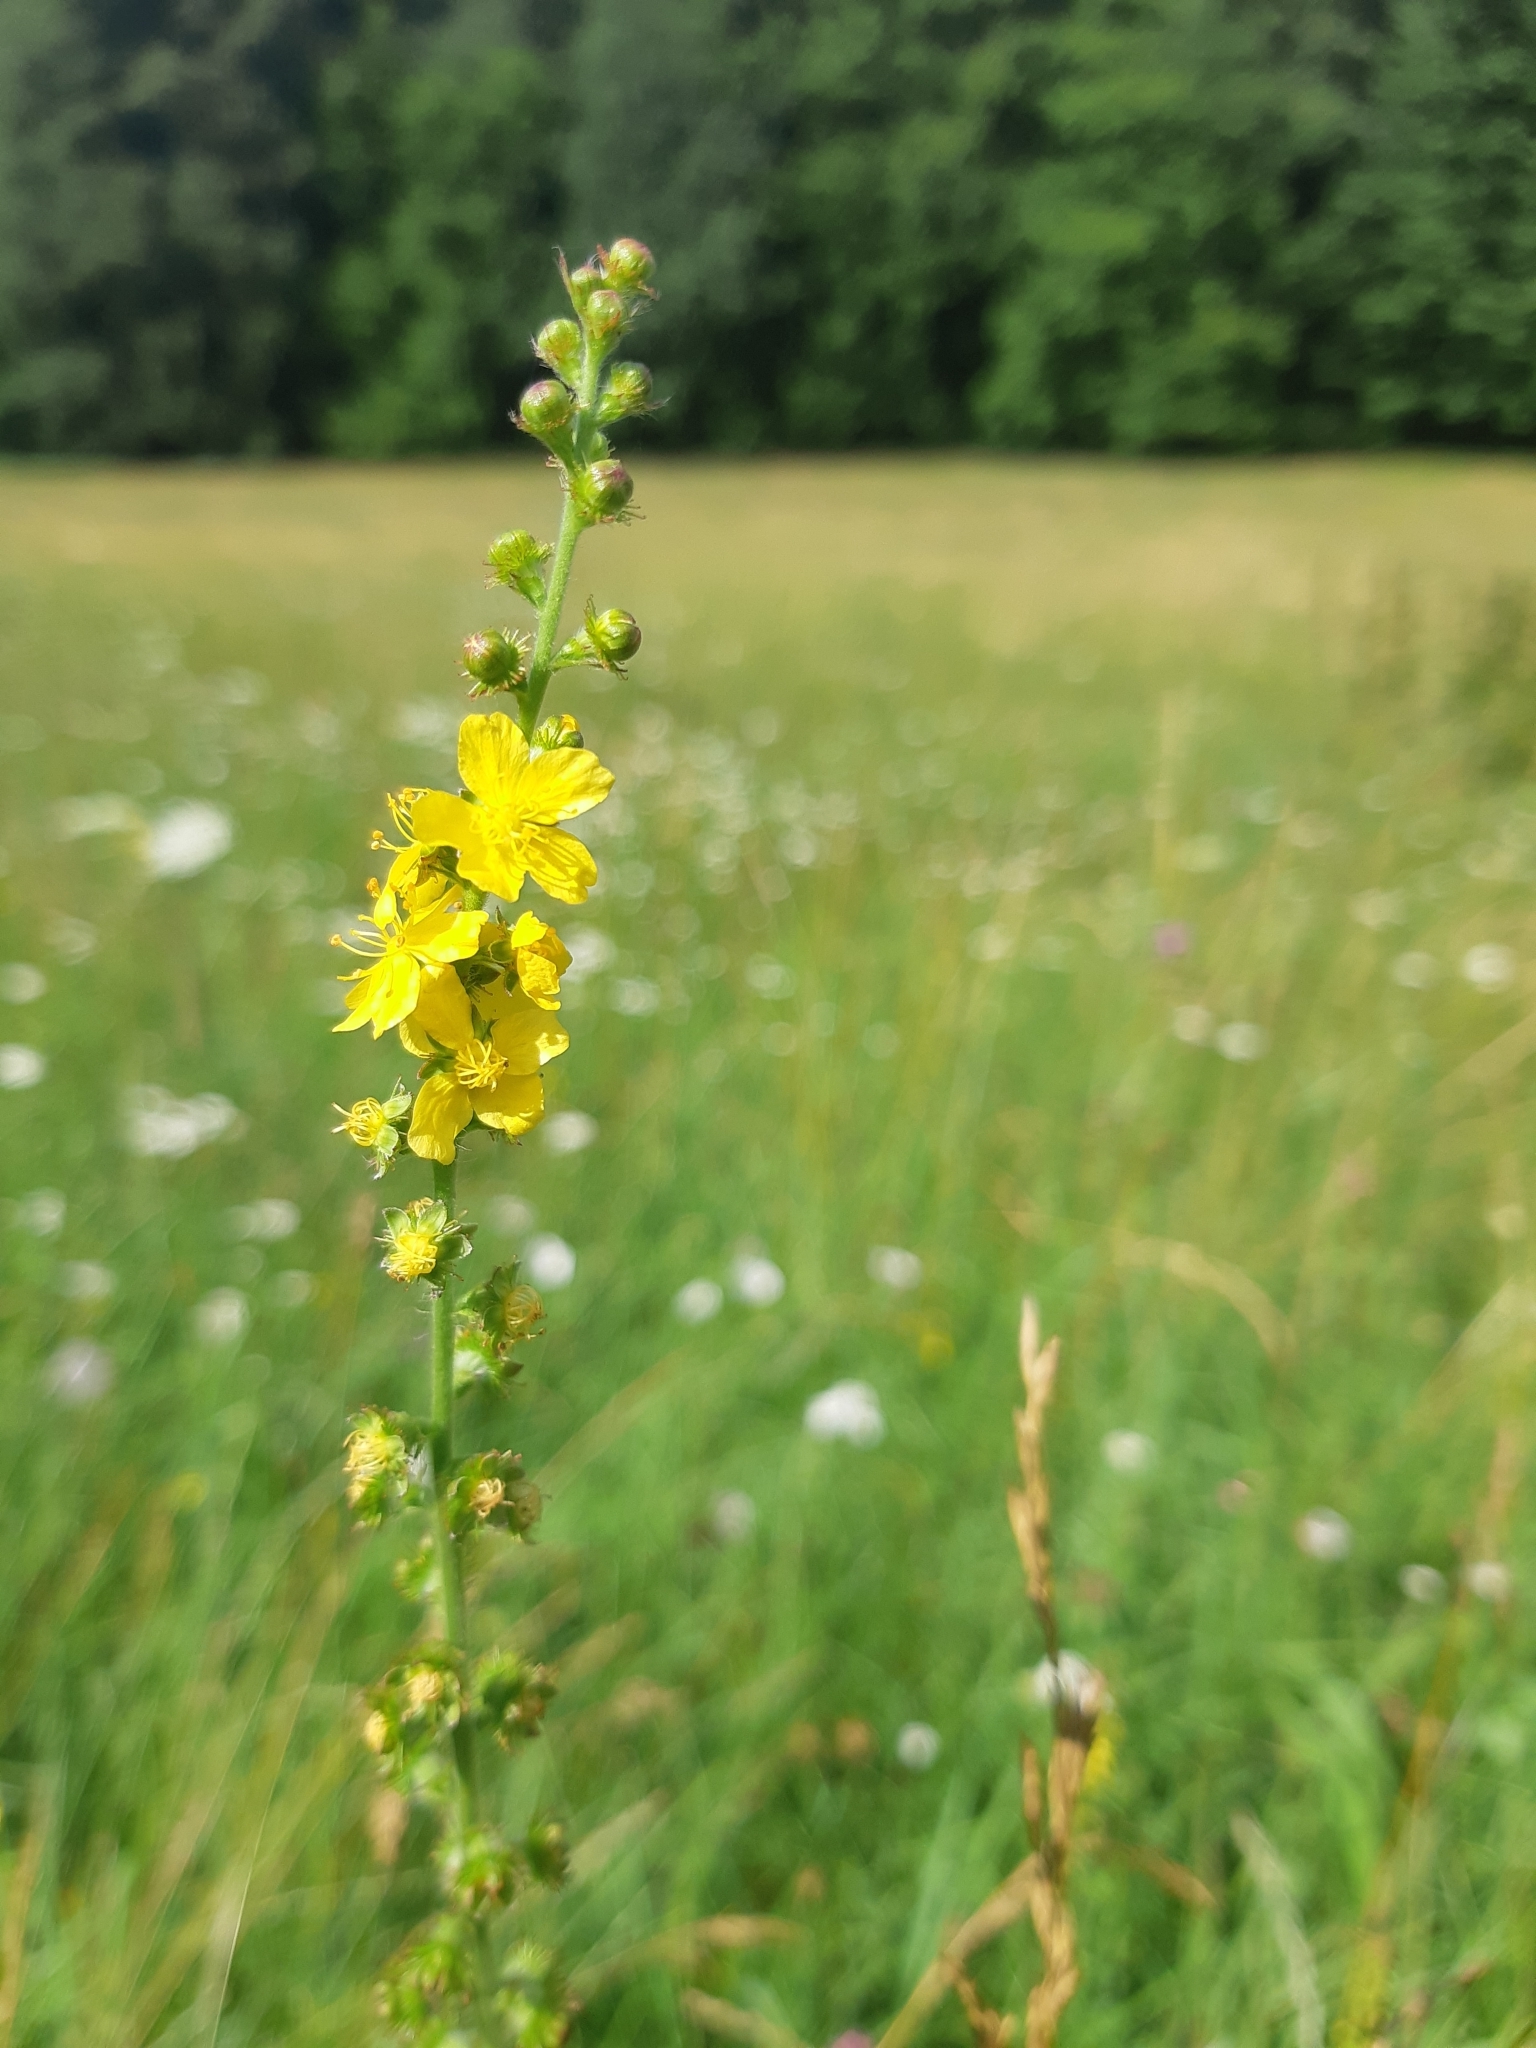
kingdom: Plantae
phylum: Tracheophyta
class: Magnoliopsida
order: Rosales
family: Rosaceae
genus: Agrimonia
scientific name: Agrimonia eupatoria
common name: Agrimony
